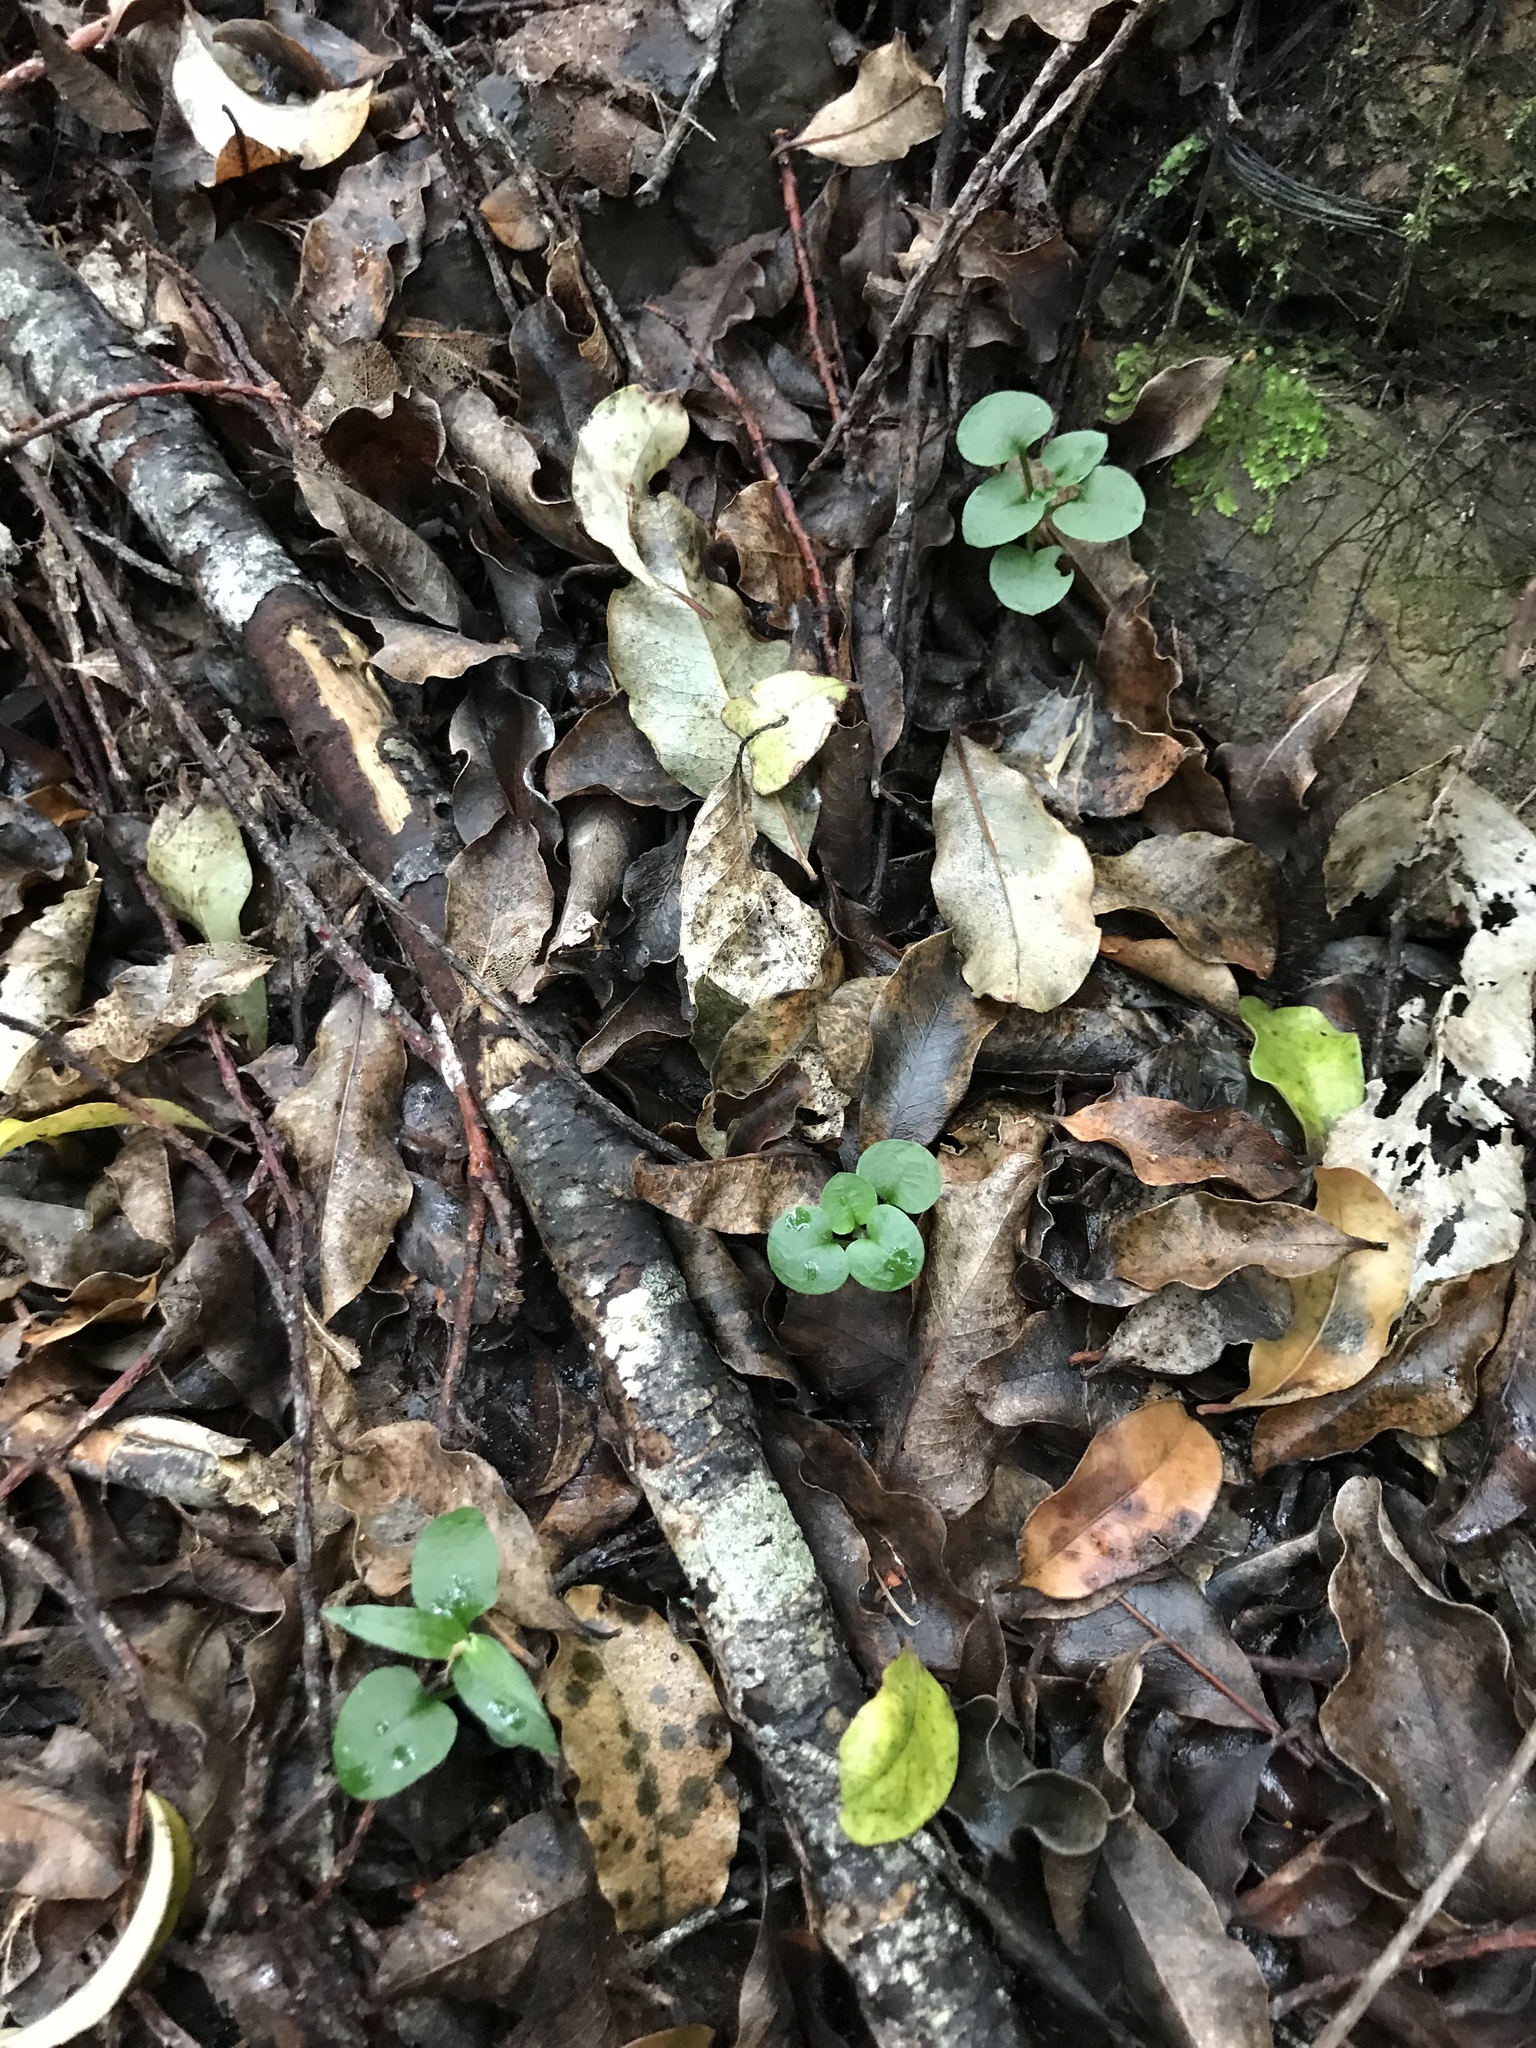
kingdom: Plantae
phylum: Tracheophyta
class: Liliopsida
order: Asparagales
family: Orchidaceae
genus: Pterostylis
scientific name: Pterostylis alobula
